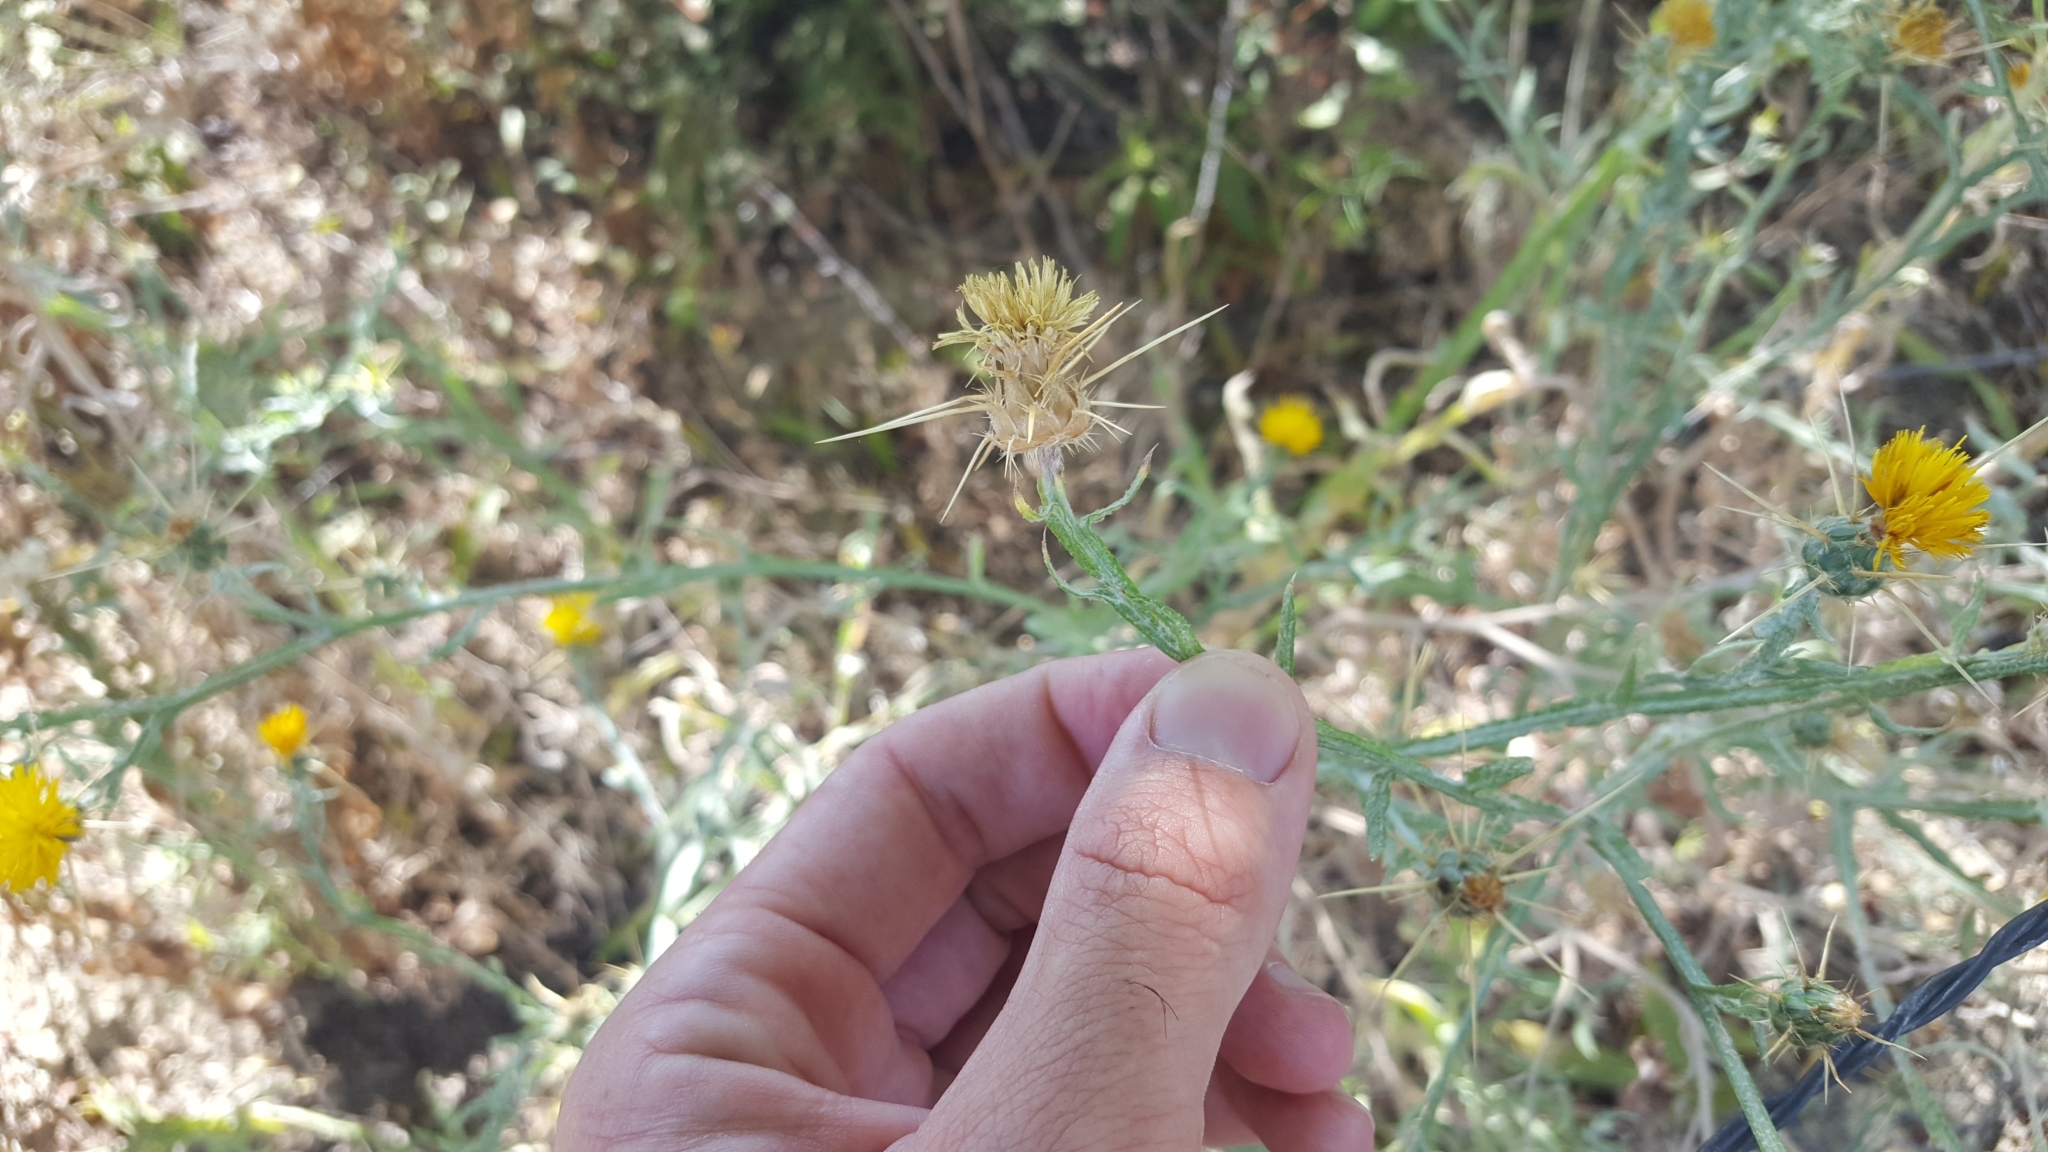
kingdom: Plantae
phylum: Tracheophyta
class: Magnoliopsida
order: Asterales
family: Asteraceae
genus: Centaurea
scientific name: Centaurea solstitialis
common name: Yellow star-thistle
